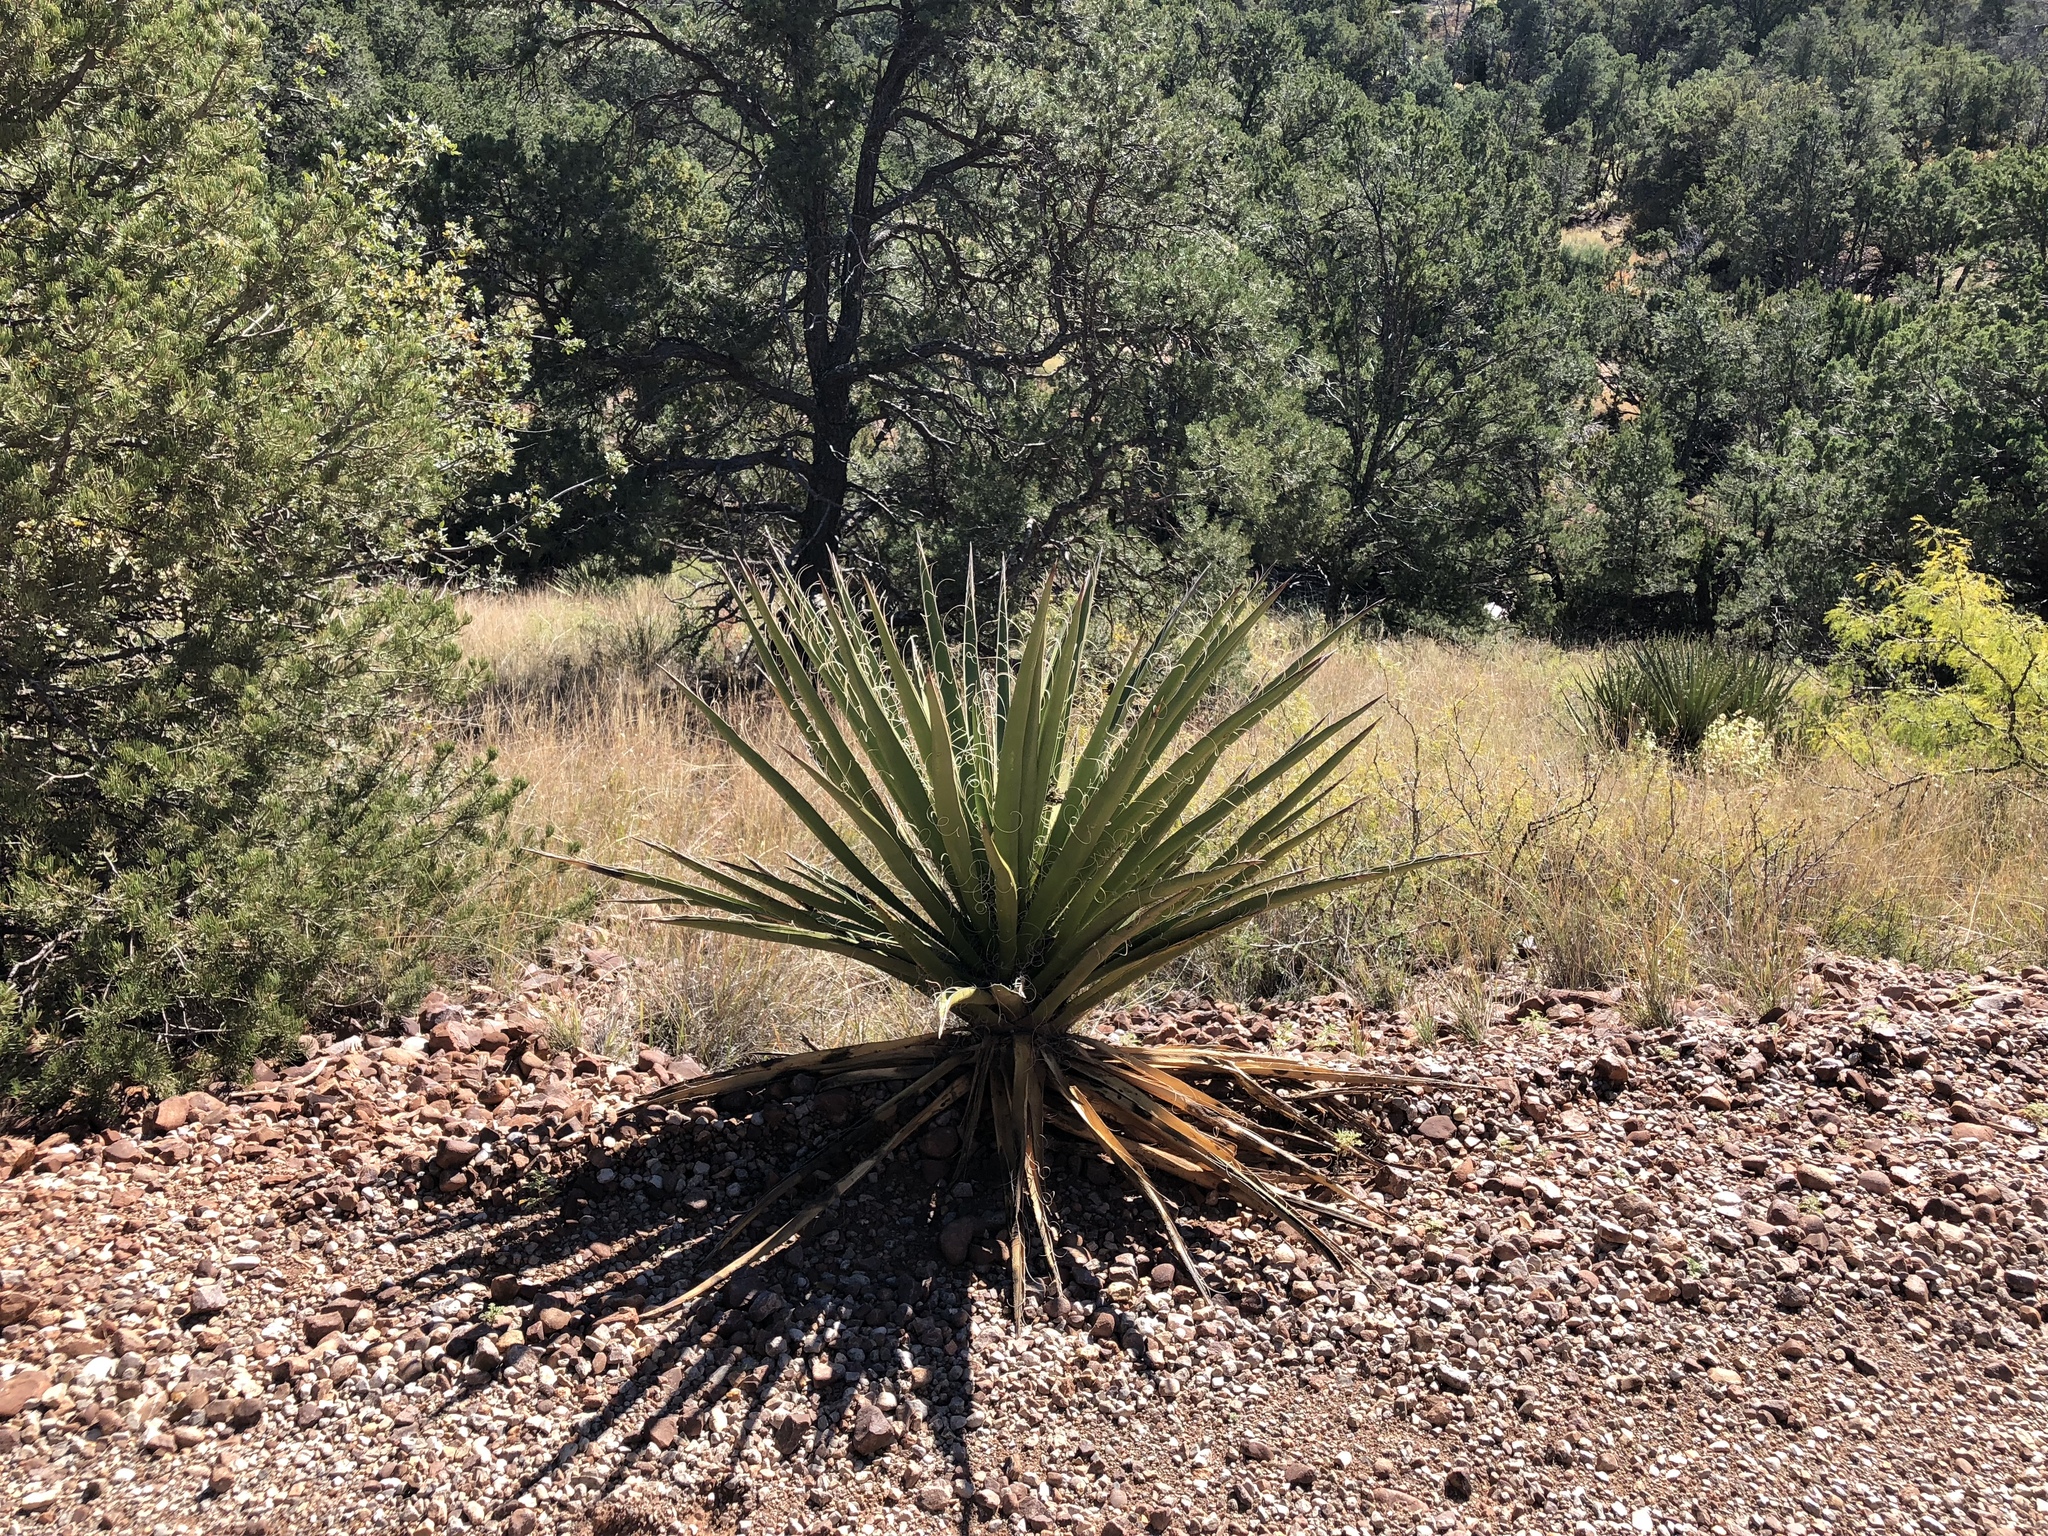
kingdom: Plantae
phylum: Tracheophyta
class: Liliopsida
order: Asparagales
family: Asparagaceae
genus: Yucca
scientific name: Yucca baccata
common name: Banana yucca
